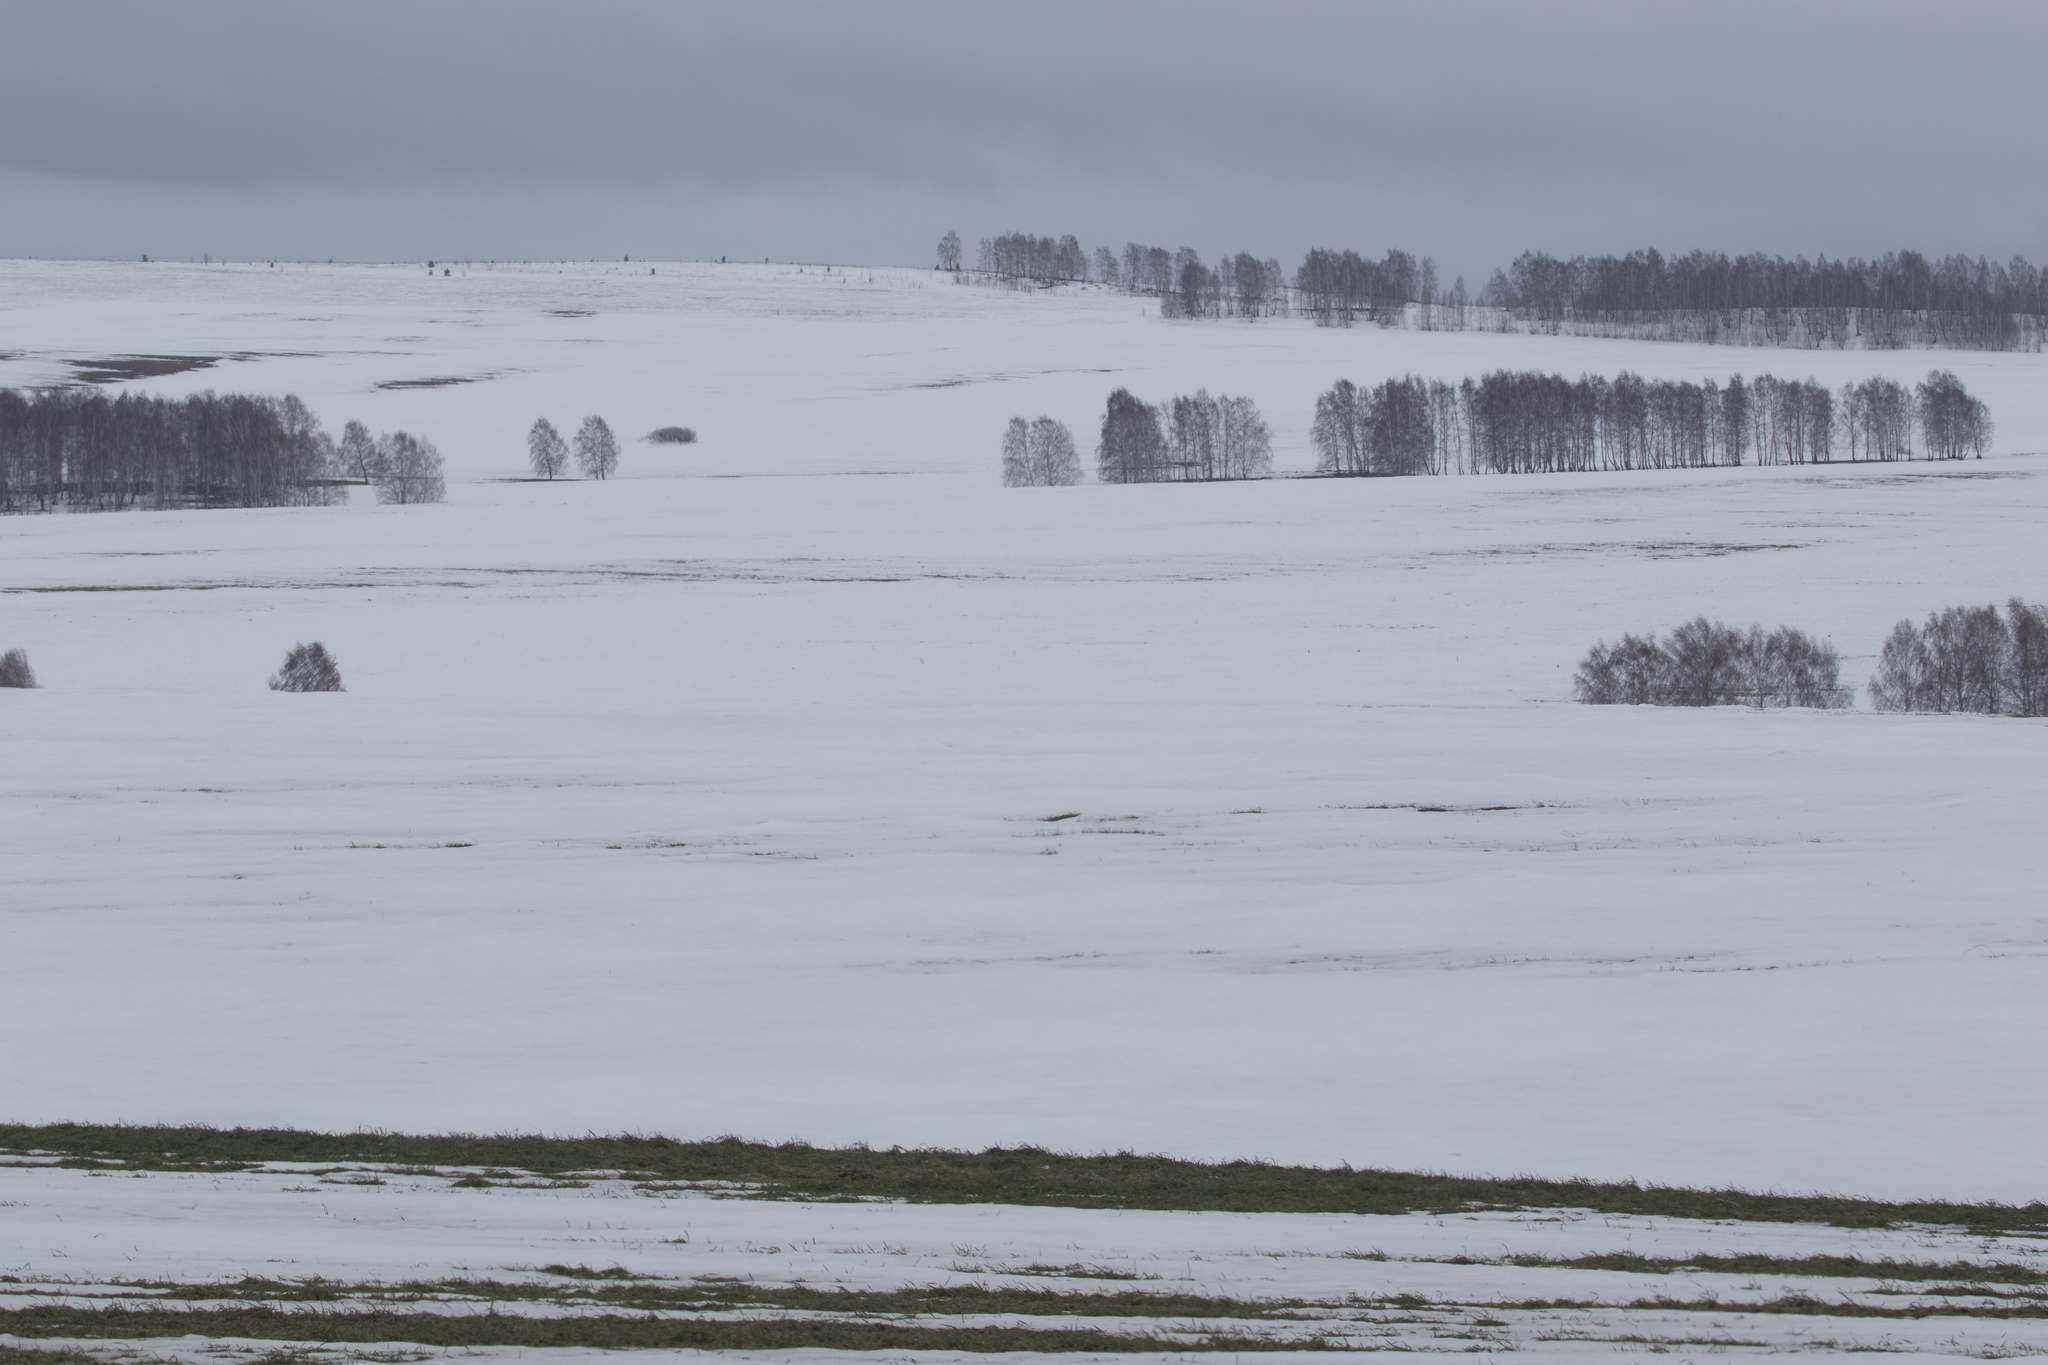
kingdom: Plantae
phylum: Tracheophyta
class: Magnoliopsida
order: Fagales
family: Betulaceae
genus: Betula
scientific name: Betula pendula
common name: Silver birch
